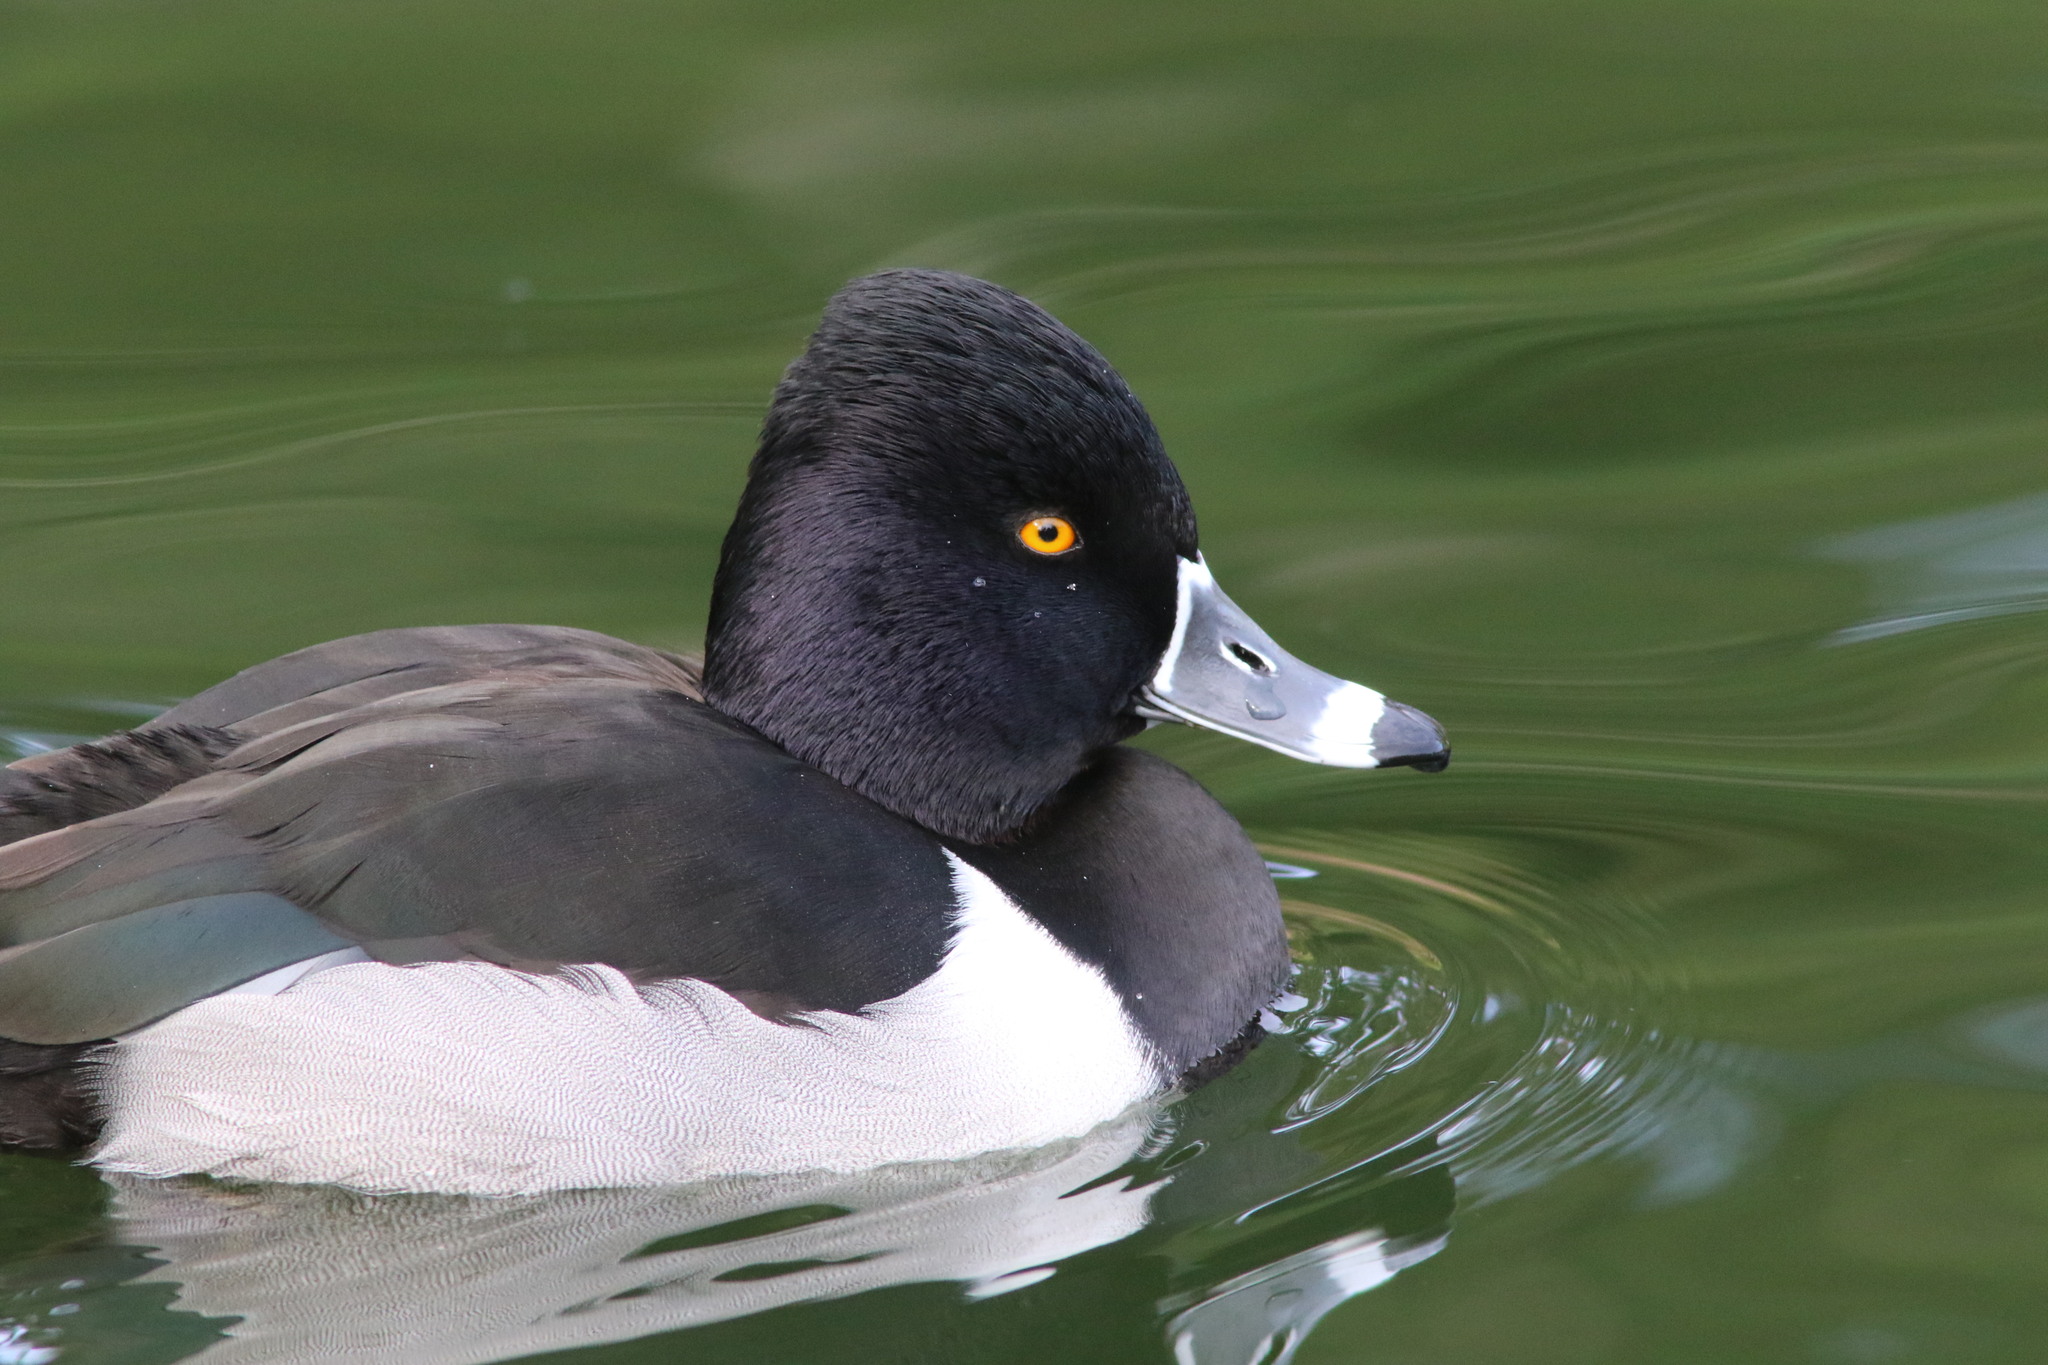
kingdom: Animalia
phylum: Chordata
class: Aves
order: Anseriformes
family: Anatidae
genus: Aythya
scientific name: Aythya collaris
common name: Ring-necked duck
